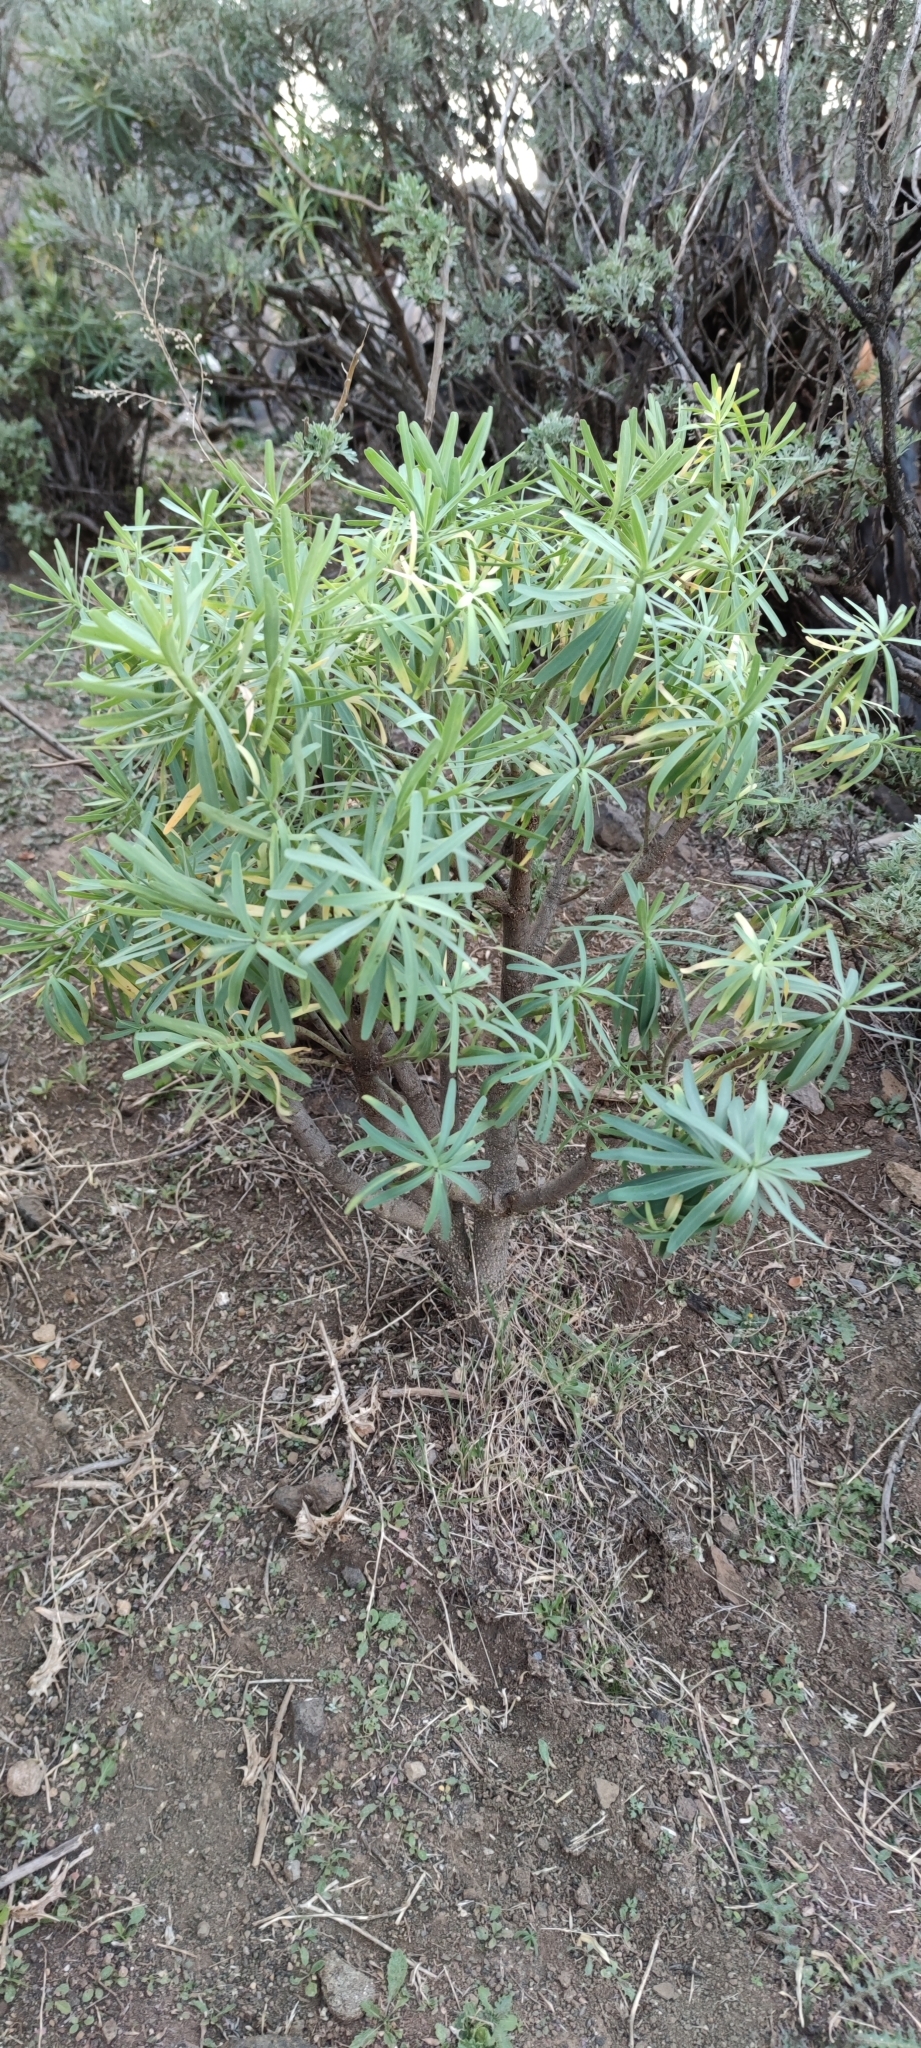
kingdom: Plantae
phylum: Tracheophyta
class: Magnoliopsida
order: Malpighiales
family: Euphorbiaceae
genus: Euphorbia
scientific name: Euphorbia regis-jubae
